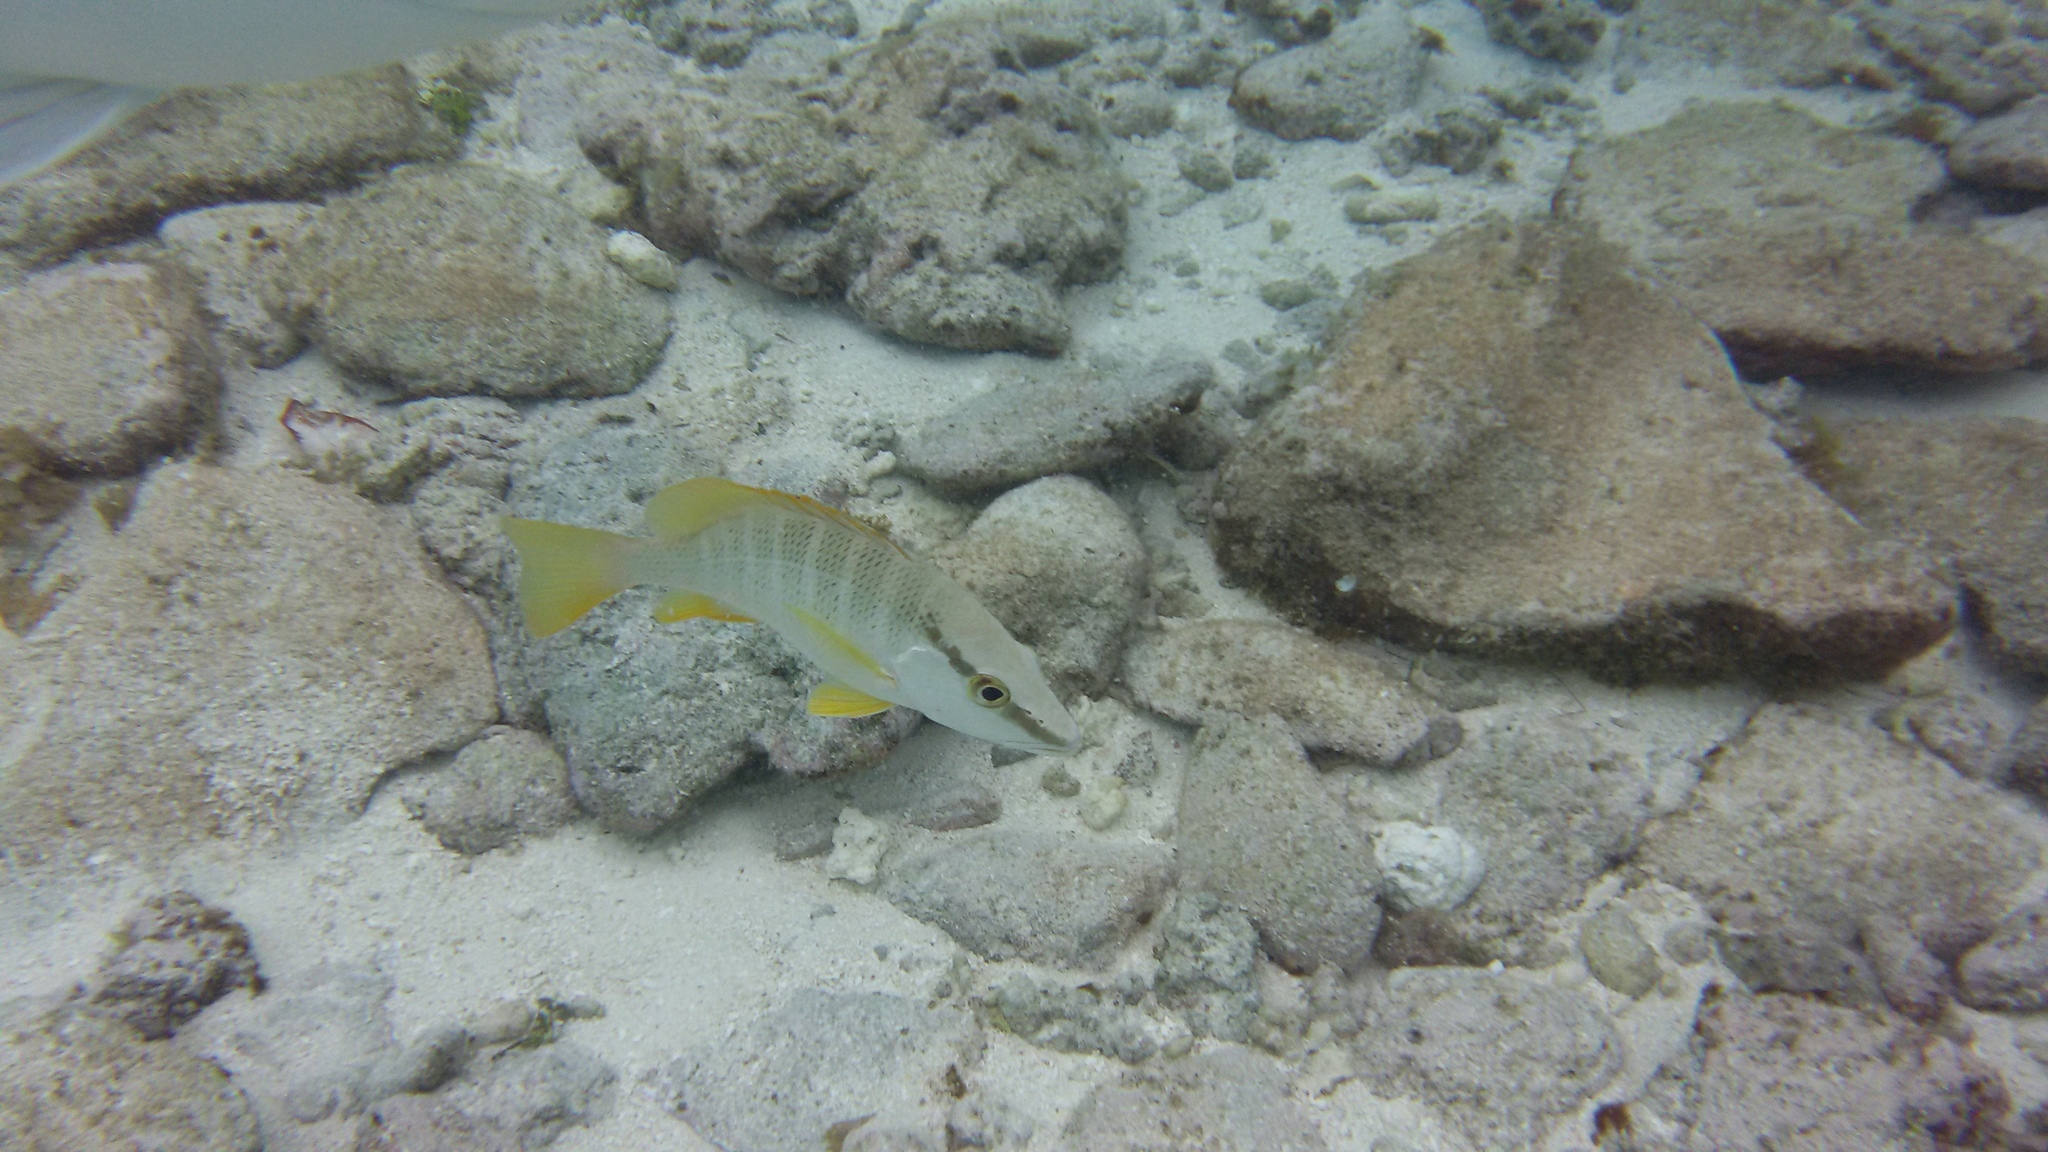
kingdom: Animalia
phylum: Chordata
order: Perciformes
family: Lutjanidae
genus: Lutjanus
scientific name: Lutjanus apodus
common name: Schoolmaster
